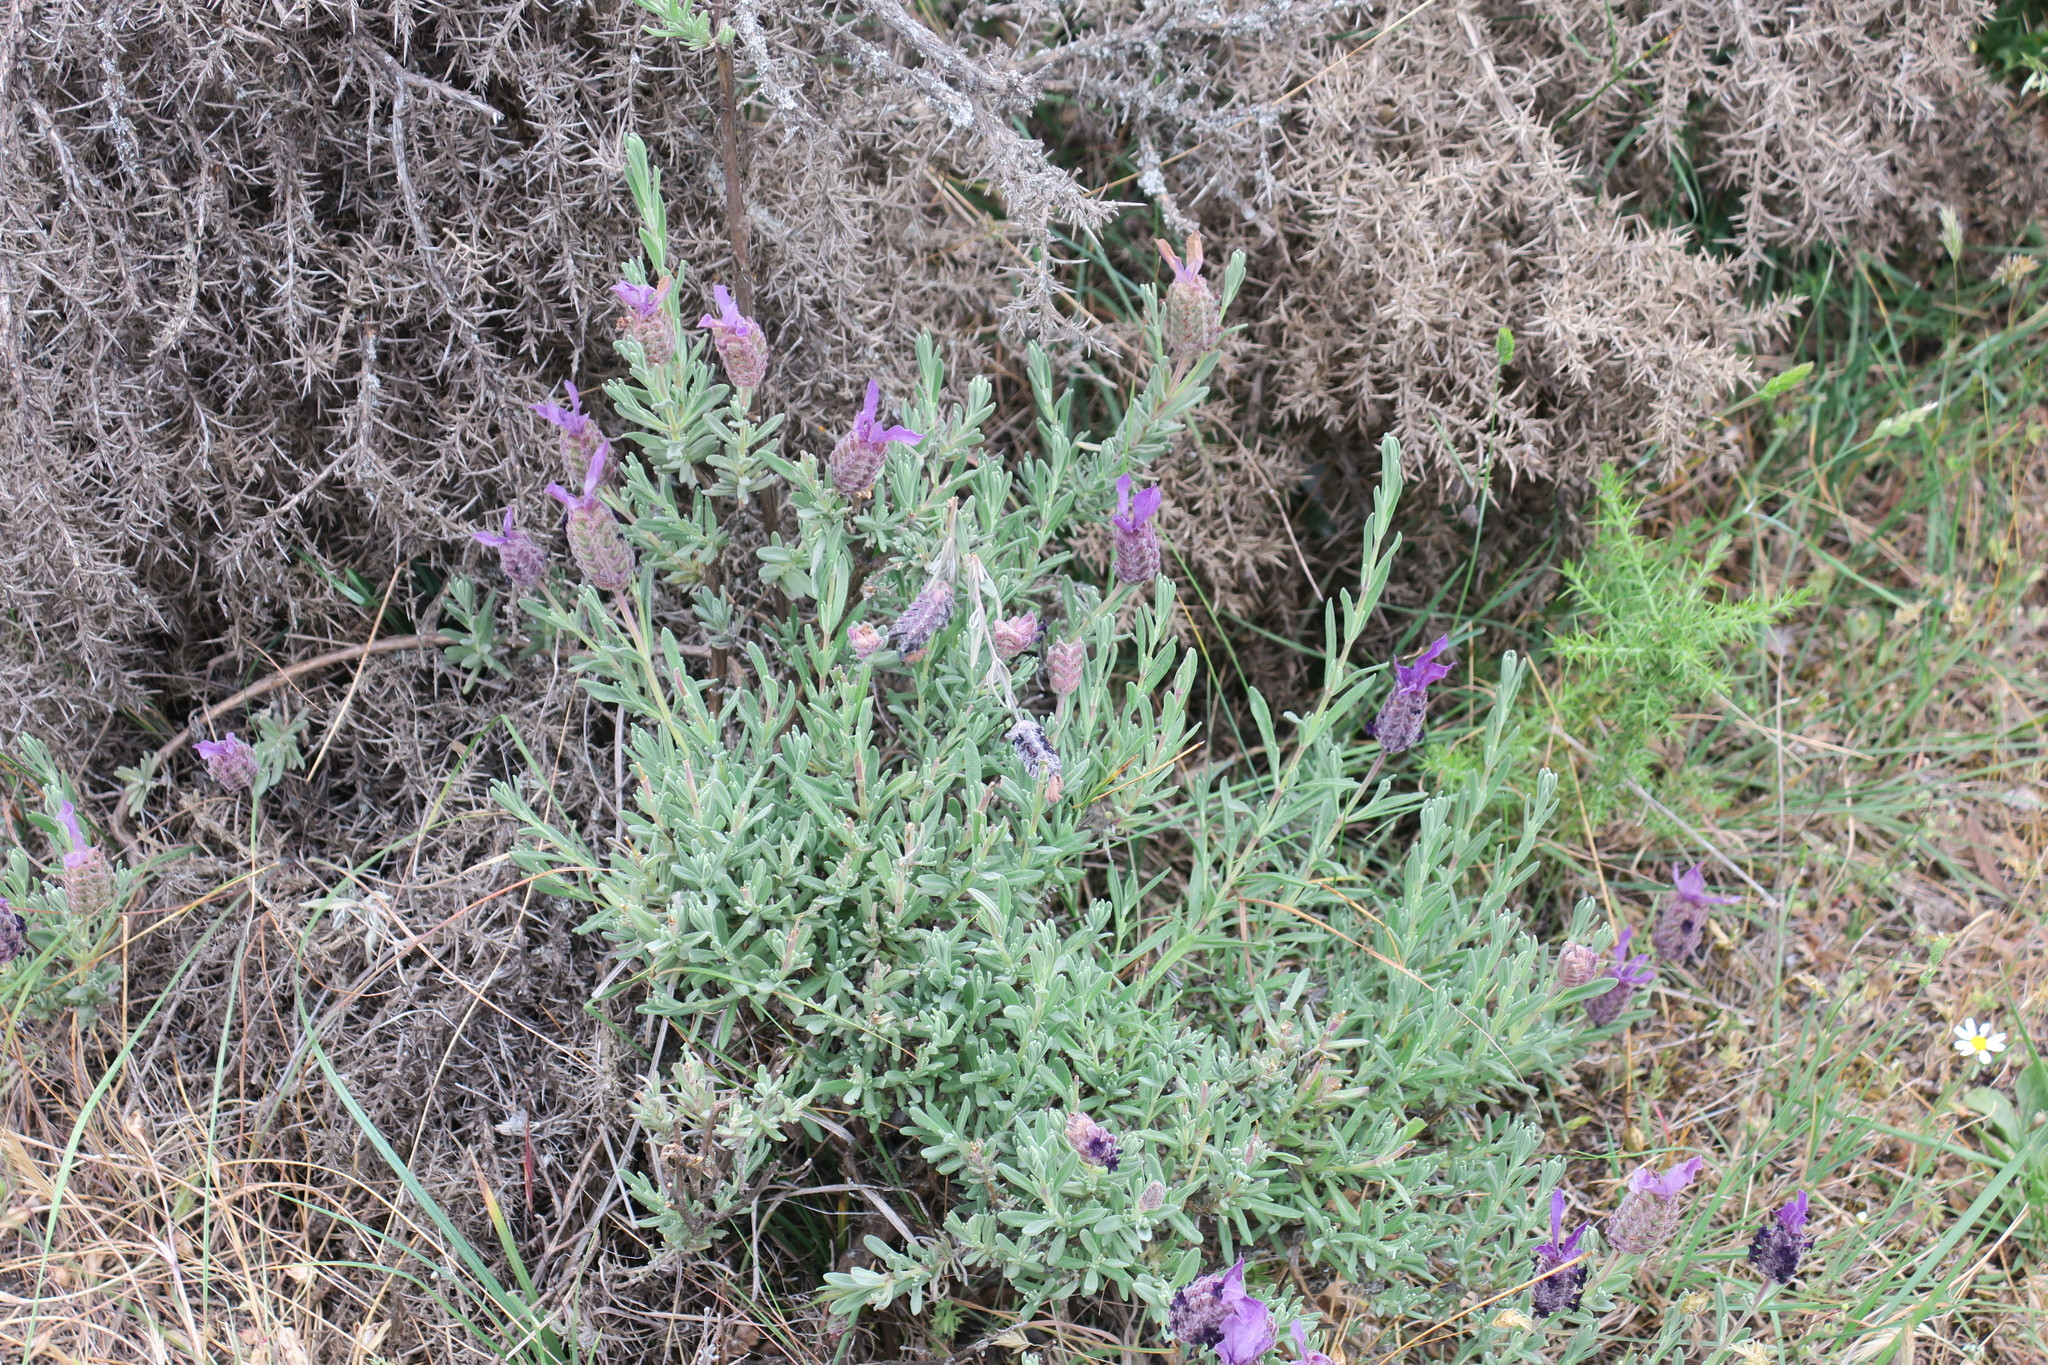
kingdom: Plantae
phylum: Tracheophyta
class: Magnoliopsida
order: Lamiales
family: Lamiaceae
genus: Lavandula
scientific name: Lavandula stoechas
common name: French lavender
